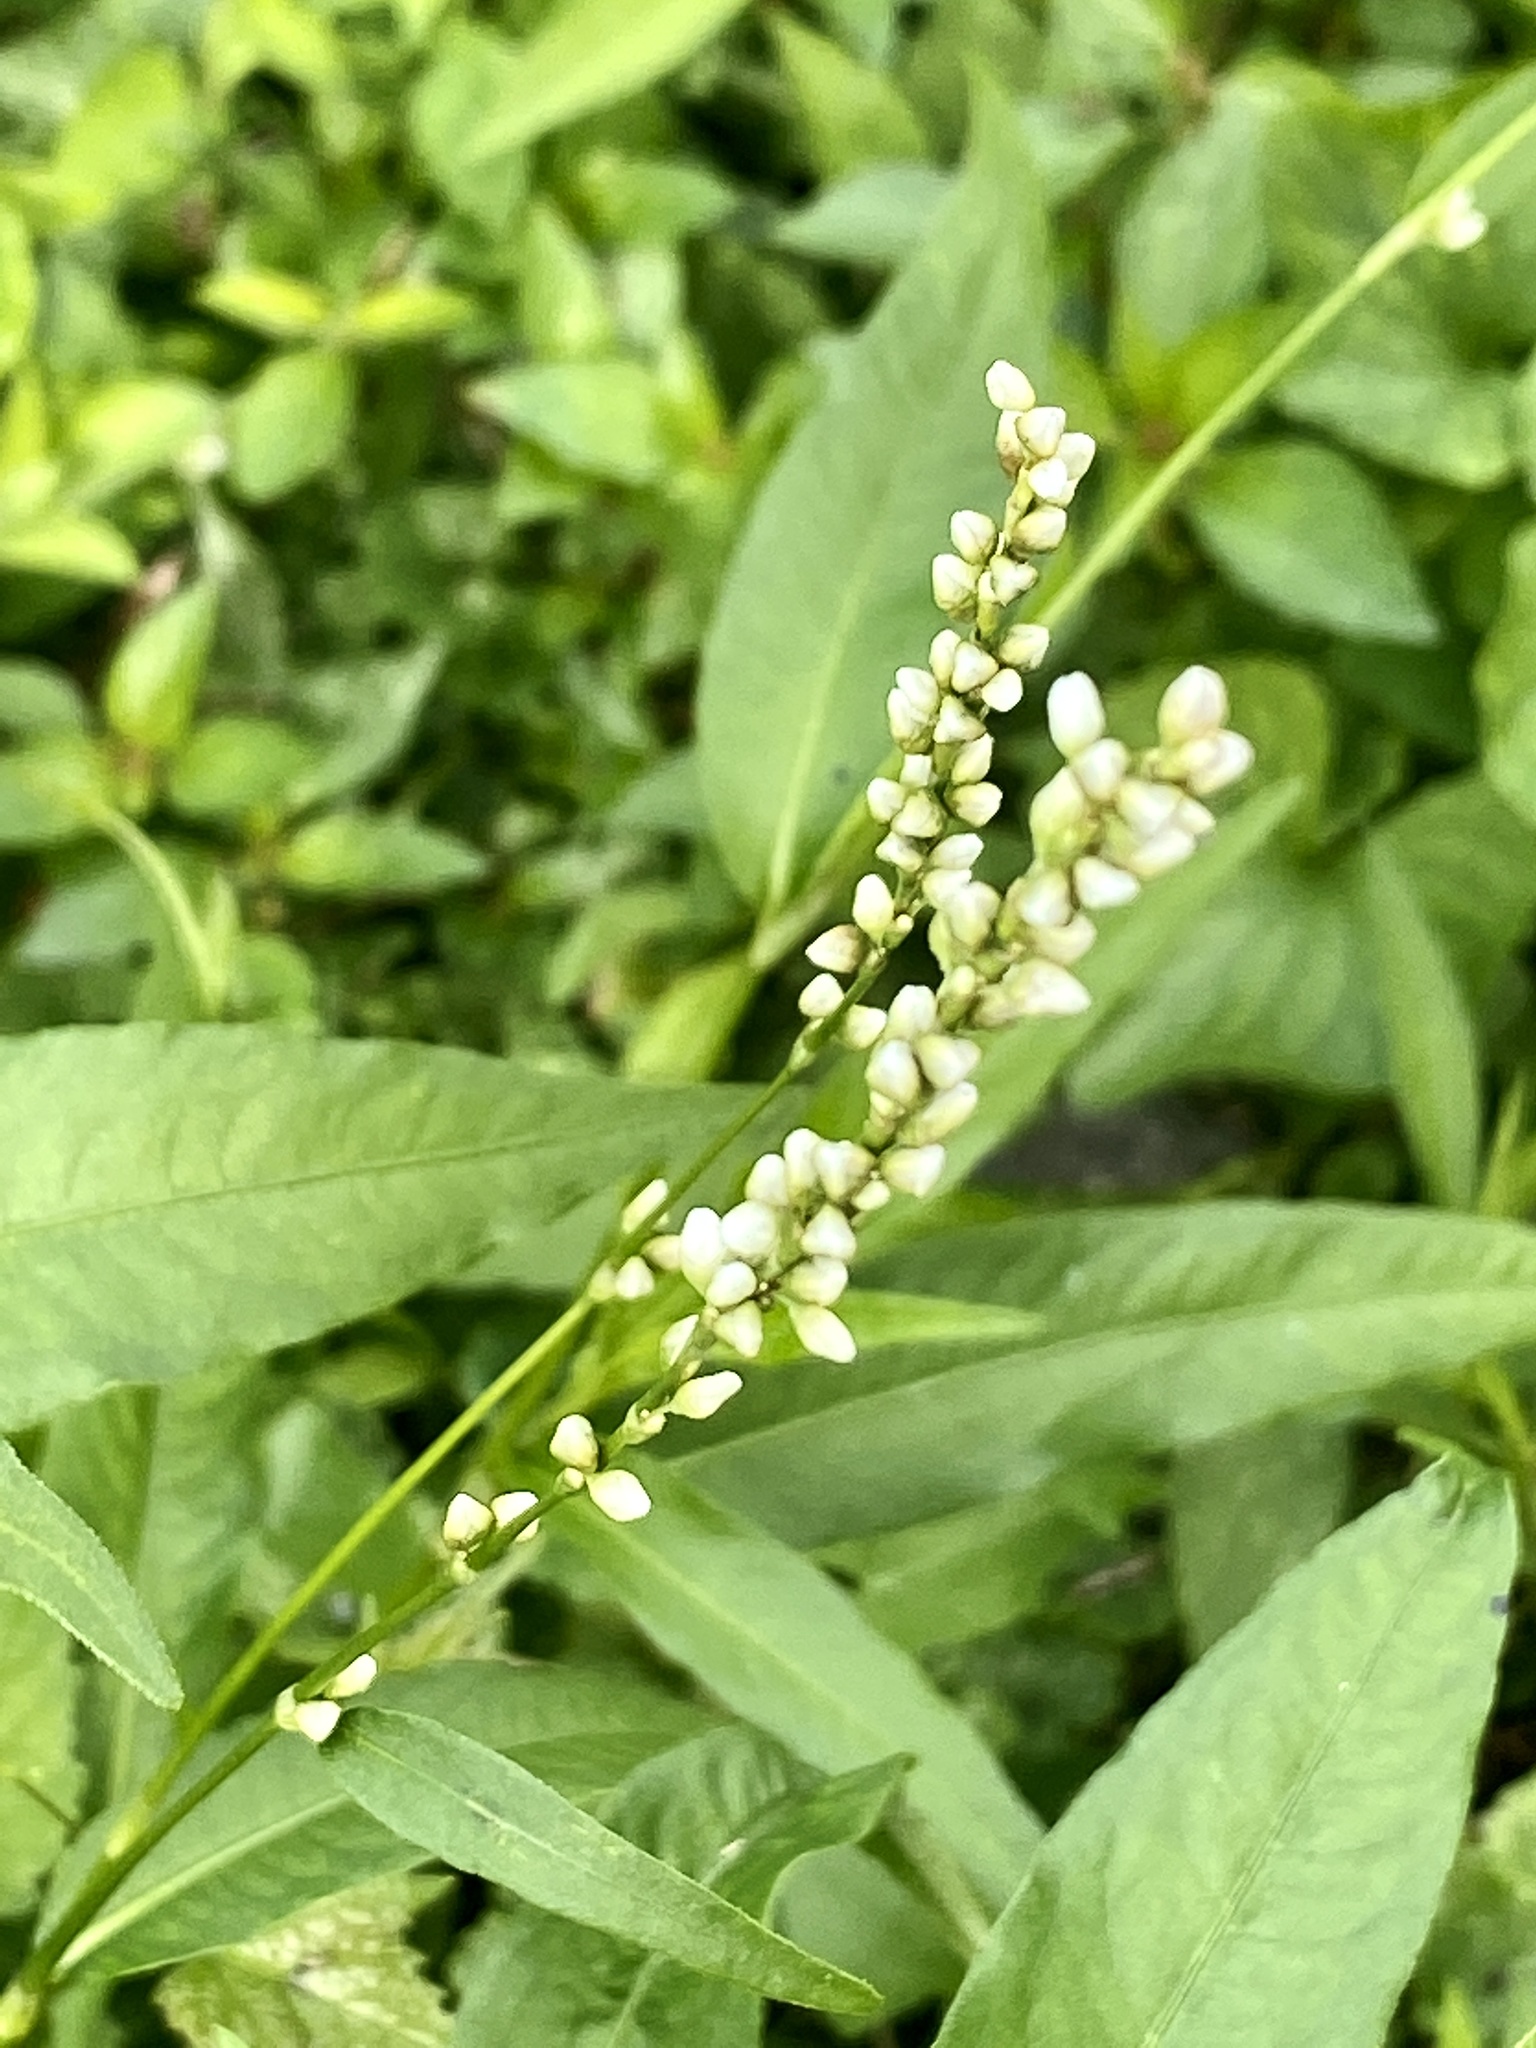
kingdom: Plantae
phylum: Tracheophyta
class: Magnoliopsida
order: Caryophyllales
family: Polygonaceae
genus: Persicaria
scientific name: Persicaria punctata
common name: Dotted smartweed
